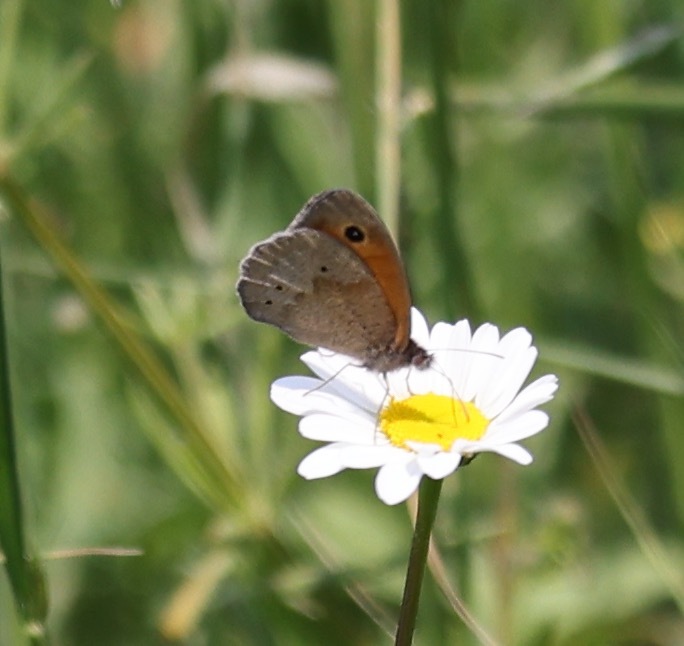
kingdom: Animalia
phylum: Arthropoda
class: Insecta
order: Lepidoptera
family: Nymphalidae
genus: Maniola
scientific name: Maniola jurtina
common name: Meadow brown
